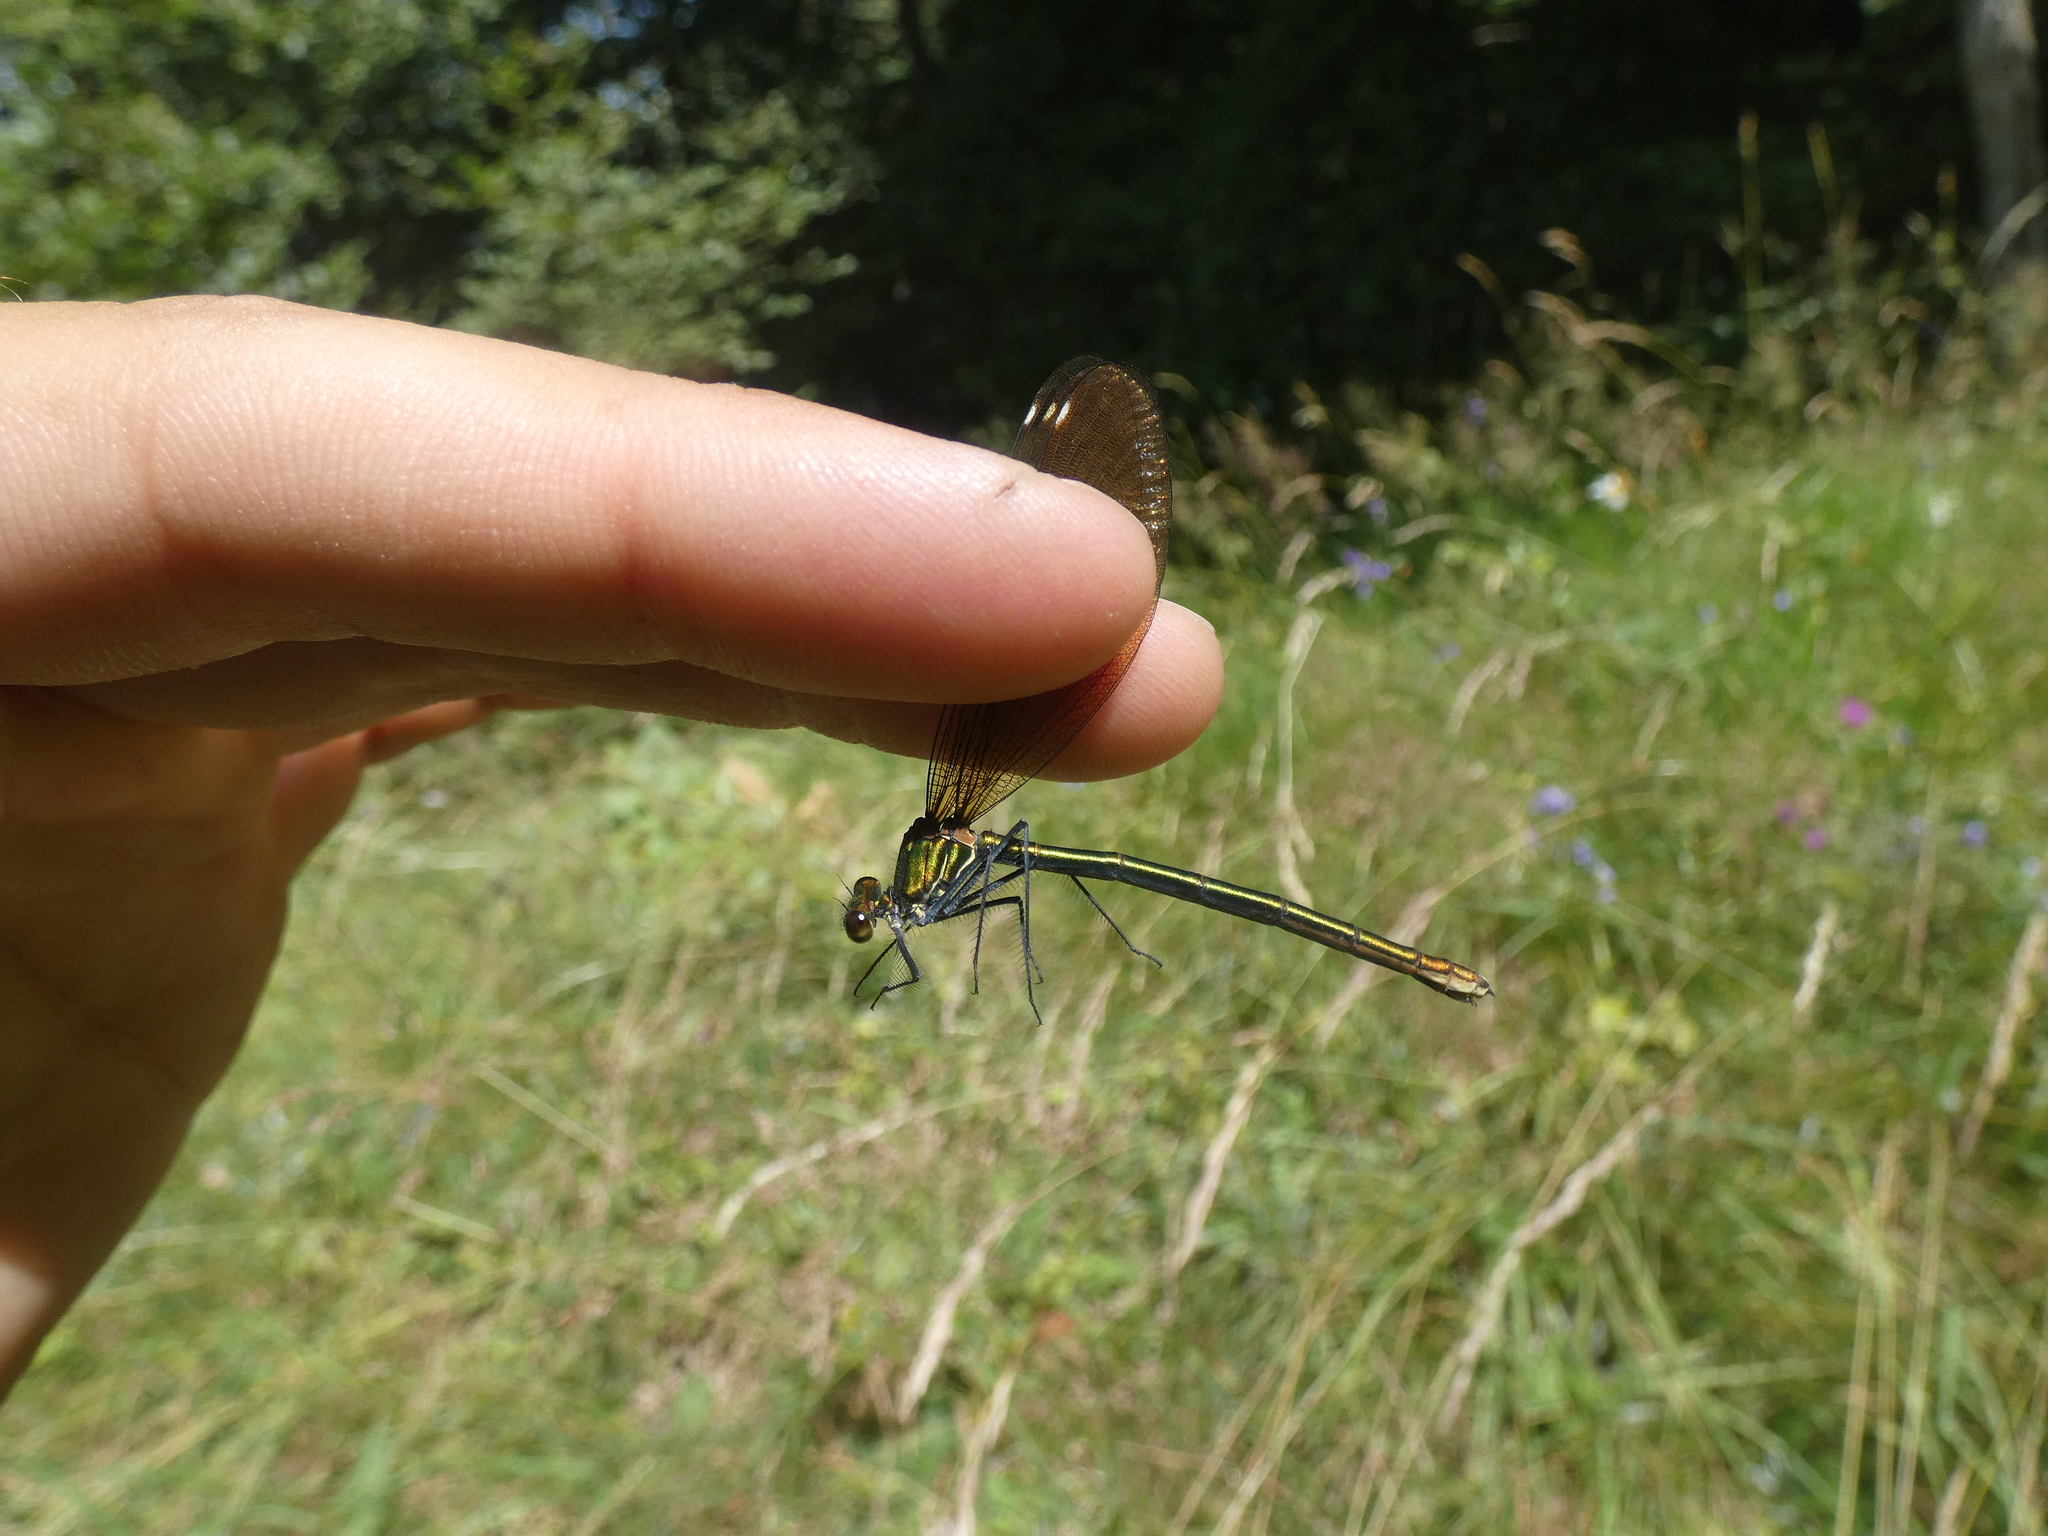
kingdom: Animalia
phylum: Arthropoda
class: Insecta
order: Odonata
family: Calopterygidae
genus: Calopteryx
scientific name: Calopteryx virgo
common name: Beautiful demoiselle
